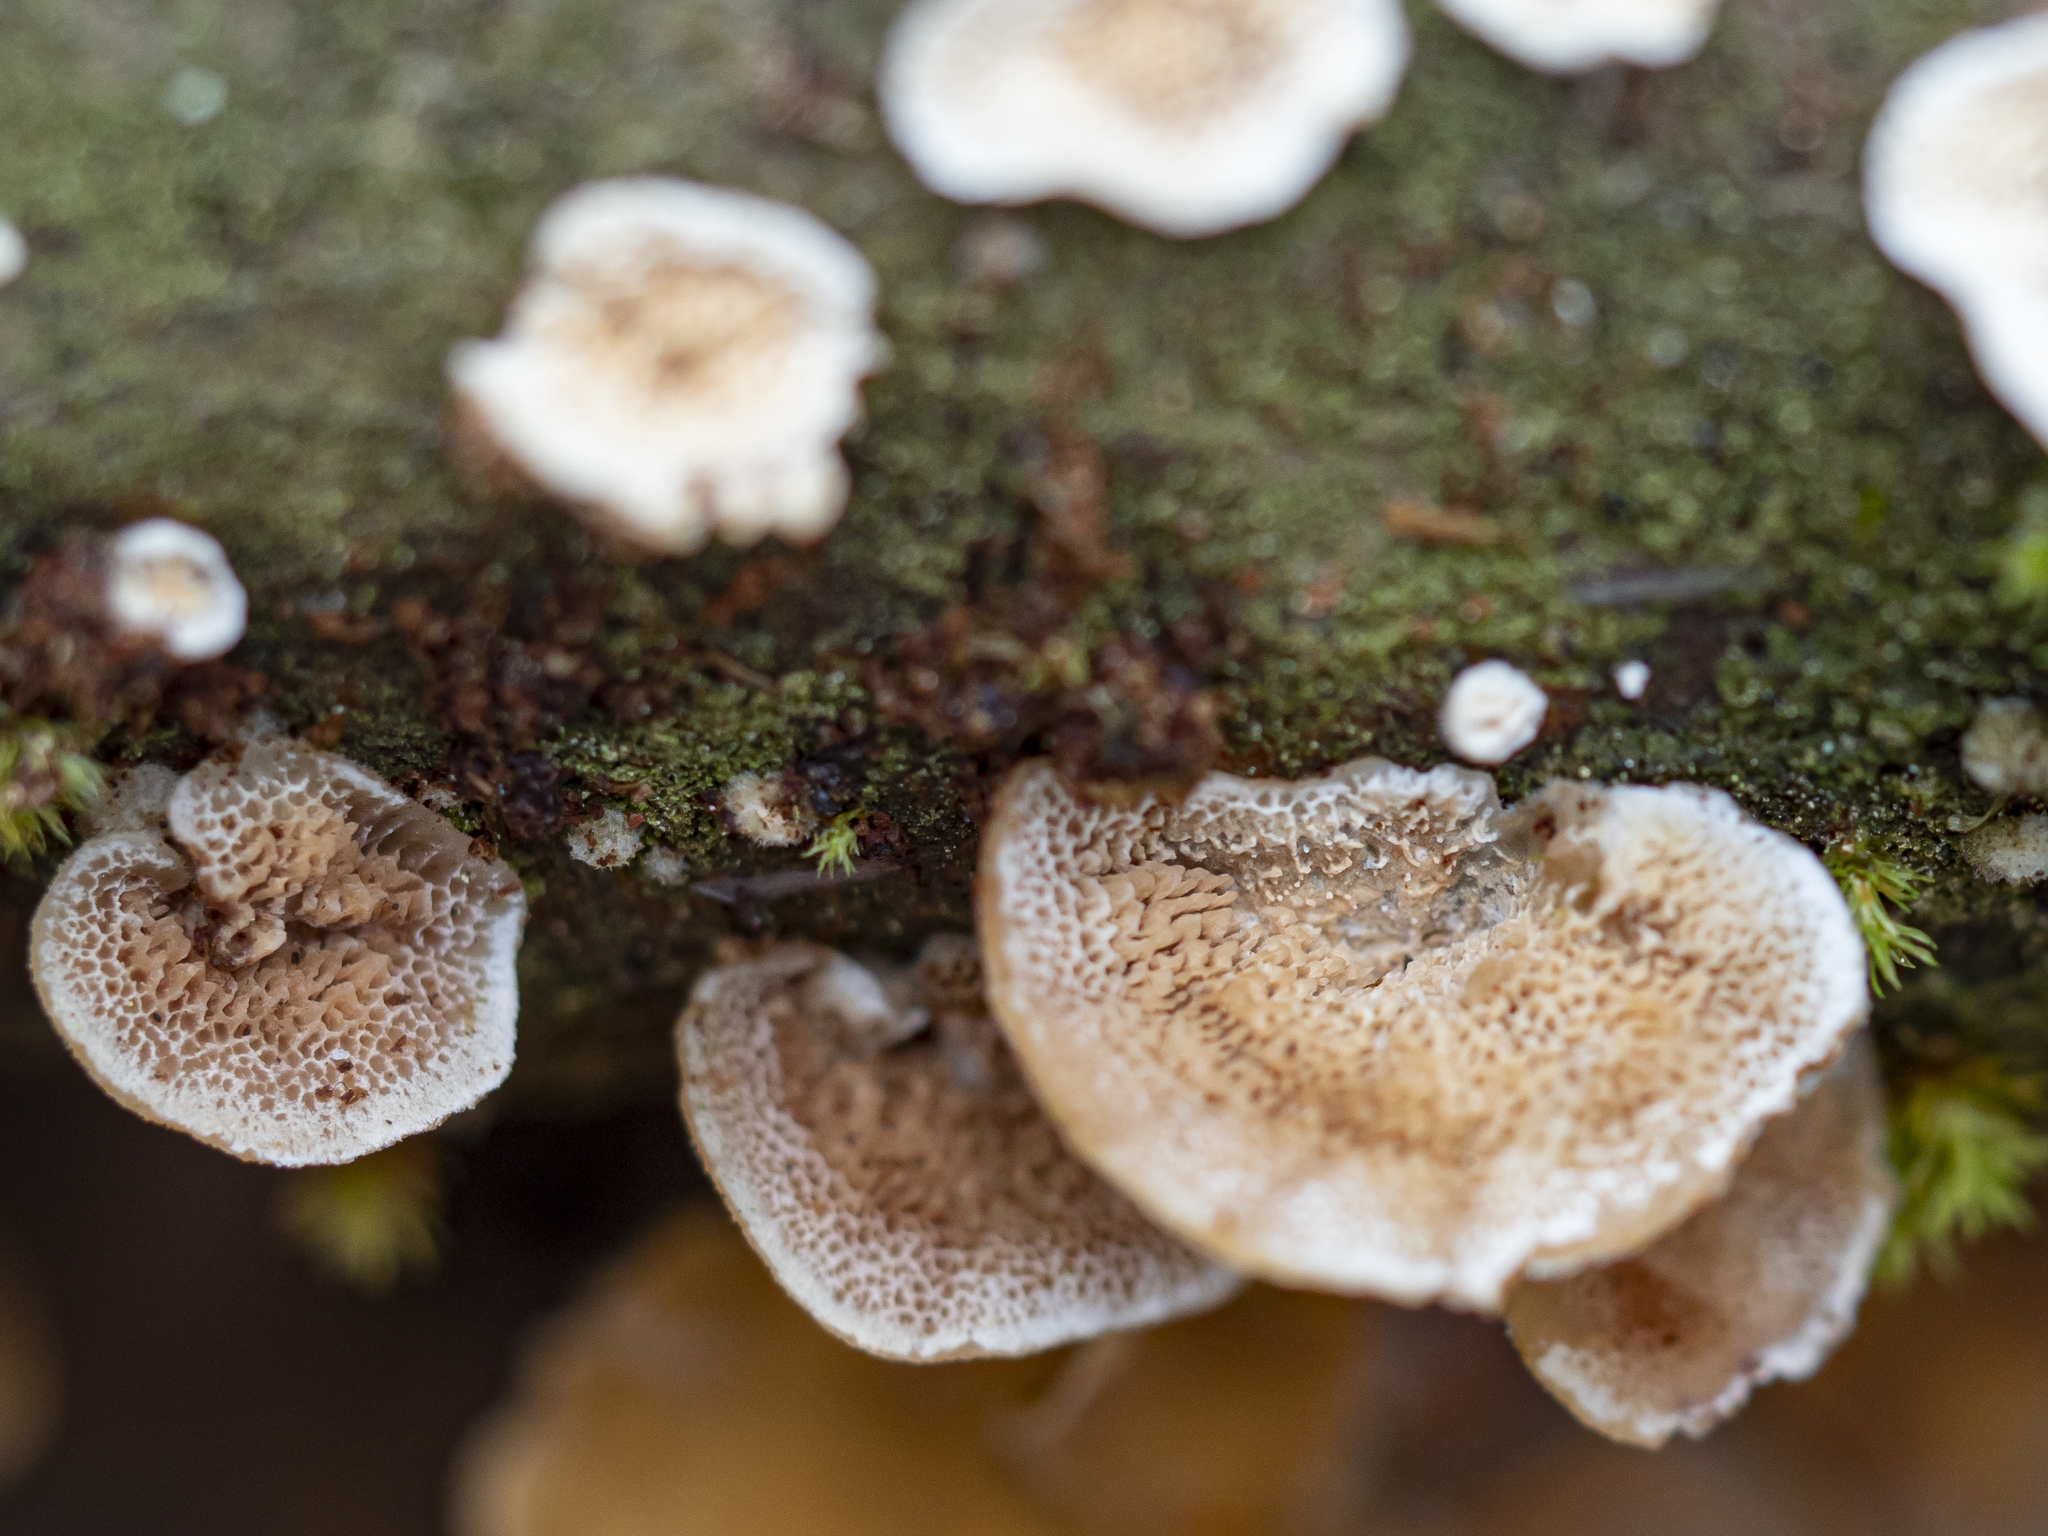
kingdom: Fungi
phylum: Basidiomycota
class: Agaricomycetes
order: Polyporales
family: Irpicaceae
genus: Trametopsis
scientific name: Trametopsis cervina
